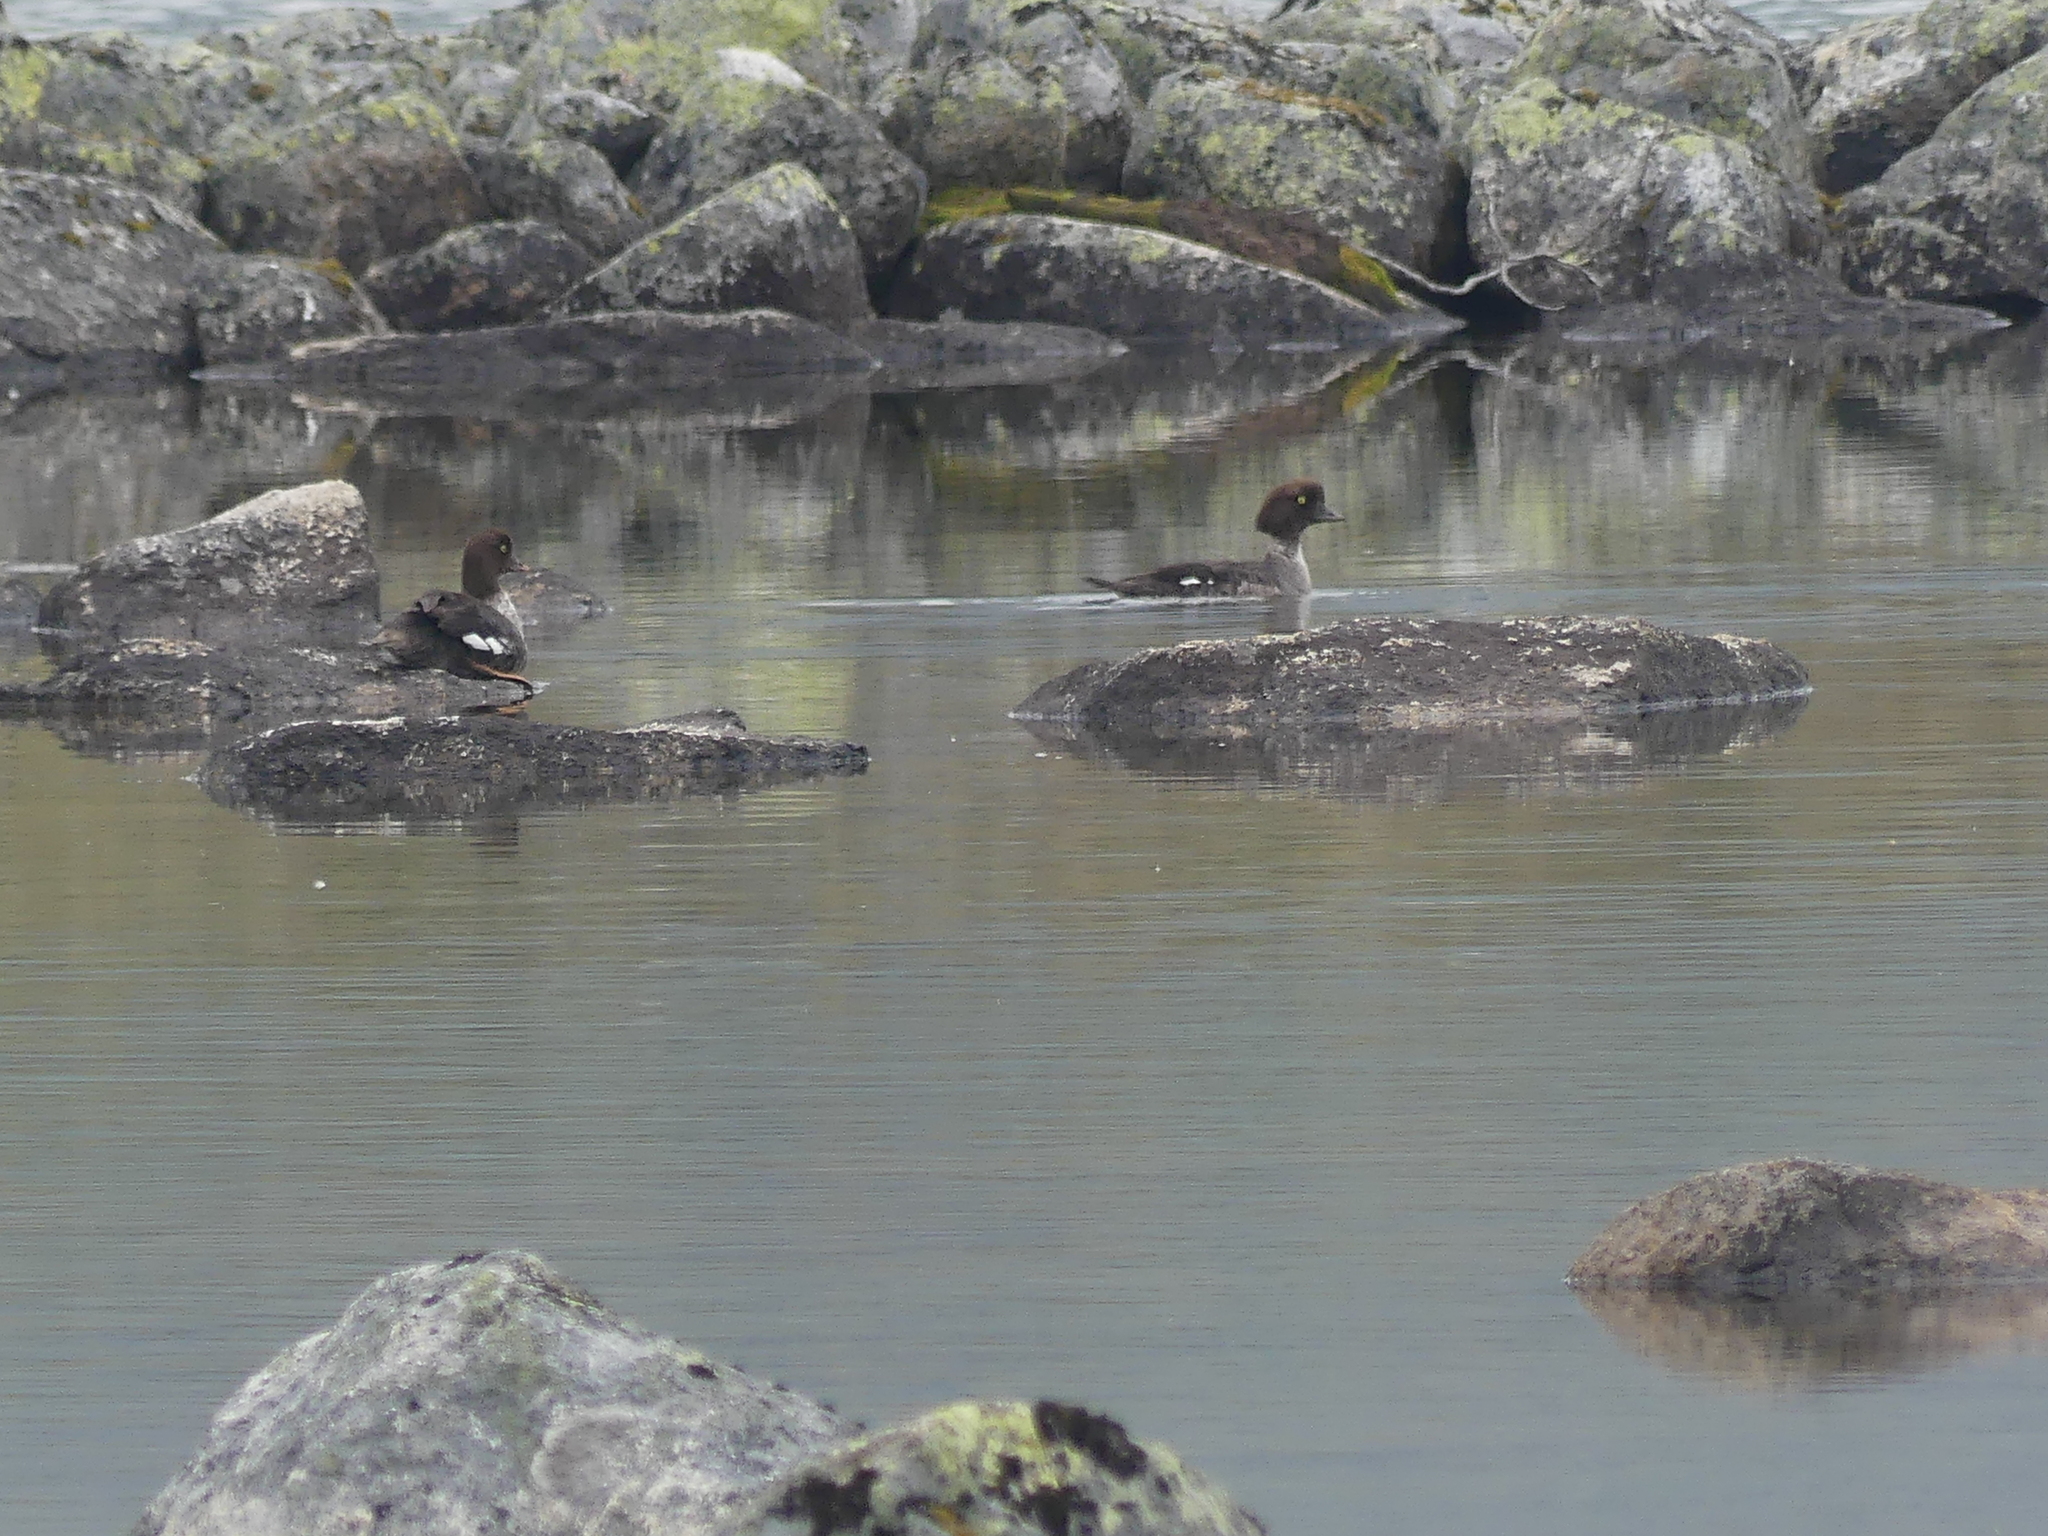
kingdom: Animalia
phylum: Chordata
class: Aves
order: Anseriformes
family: Anatidae
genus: Bucephala
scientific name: Bucephala islandica
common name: Barrow's goldeneye
